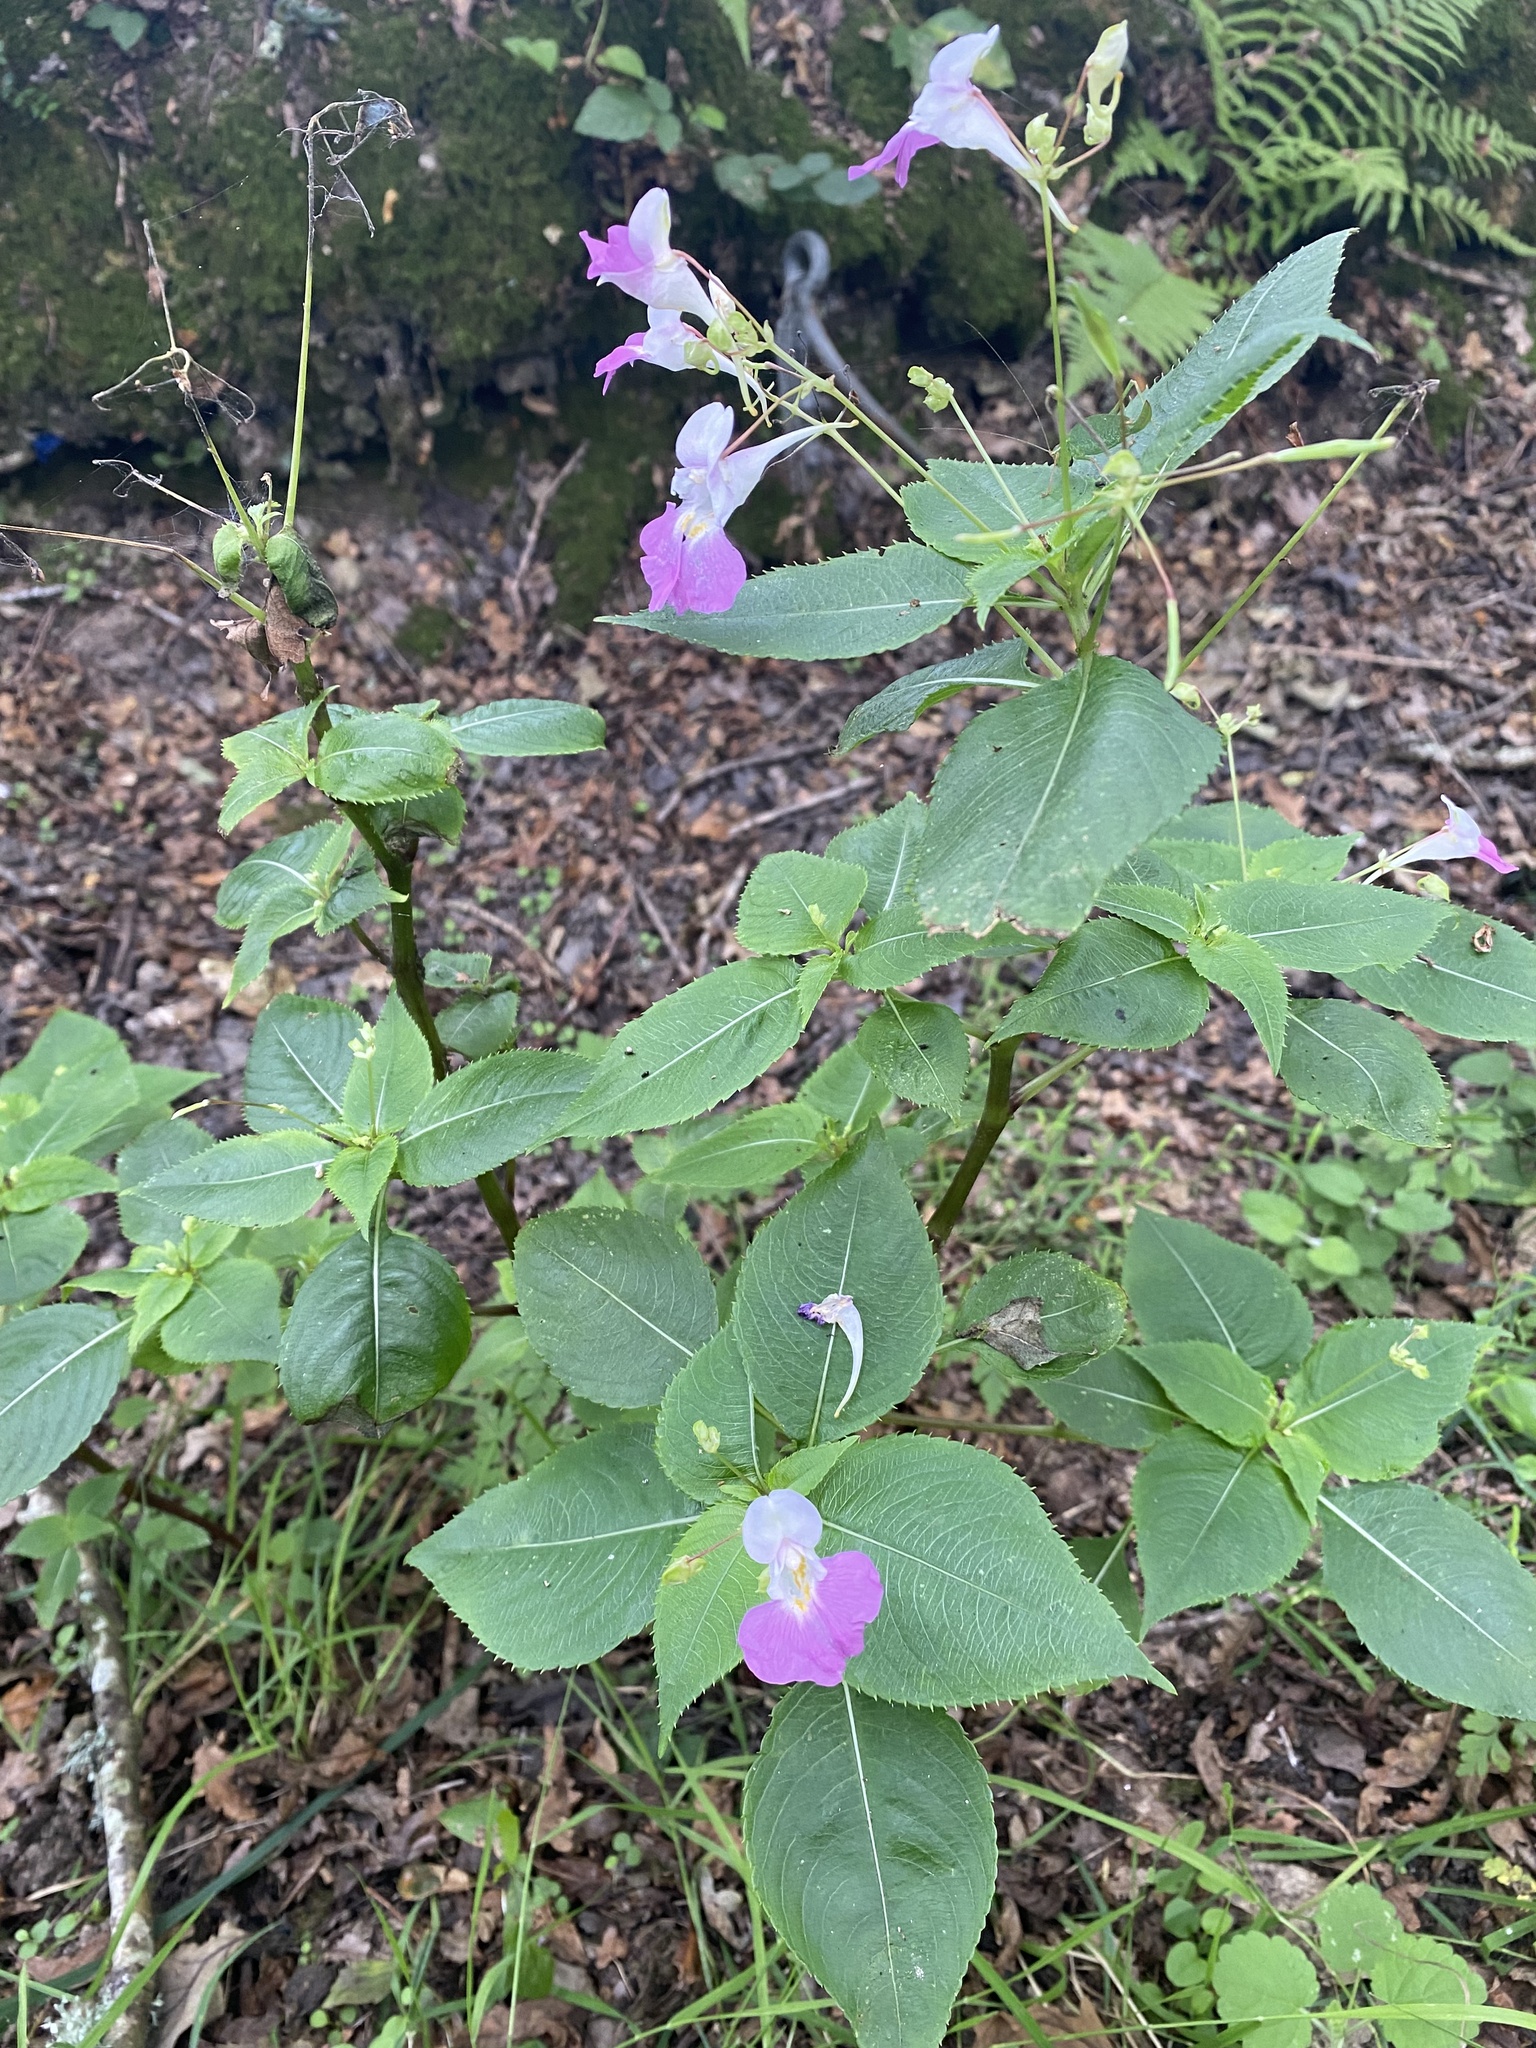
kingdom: Plantae
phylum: Tracheophyta
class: Magnoliopsida
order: Ericales
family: Balsaminaceae
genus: Impatiens
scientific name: Impatiens balfourii
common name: Balfour's touch-me-not
